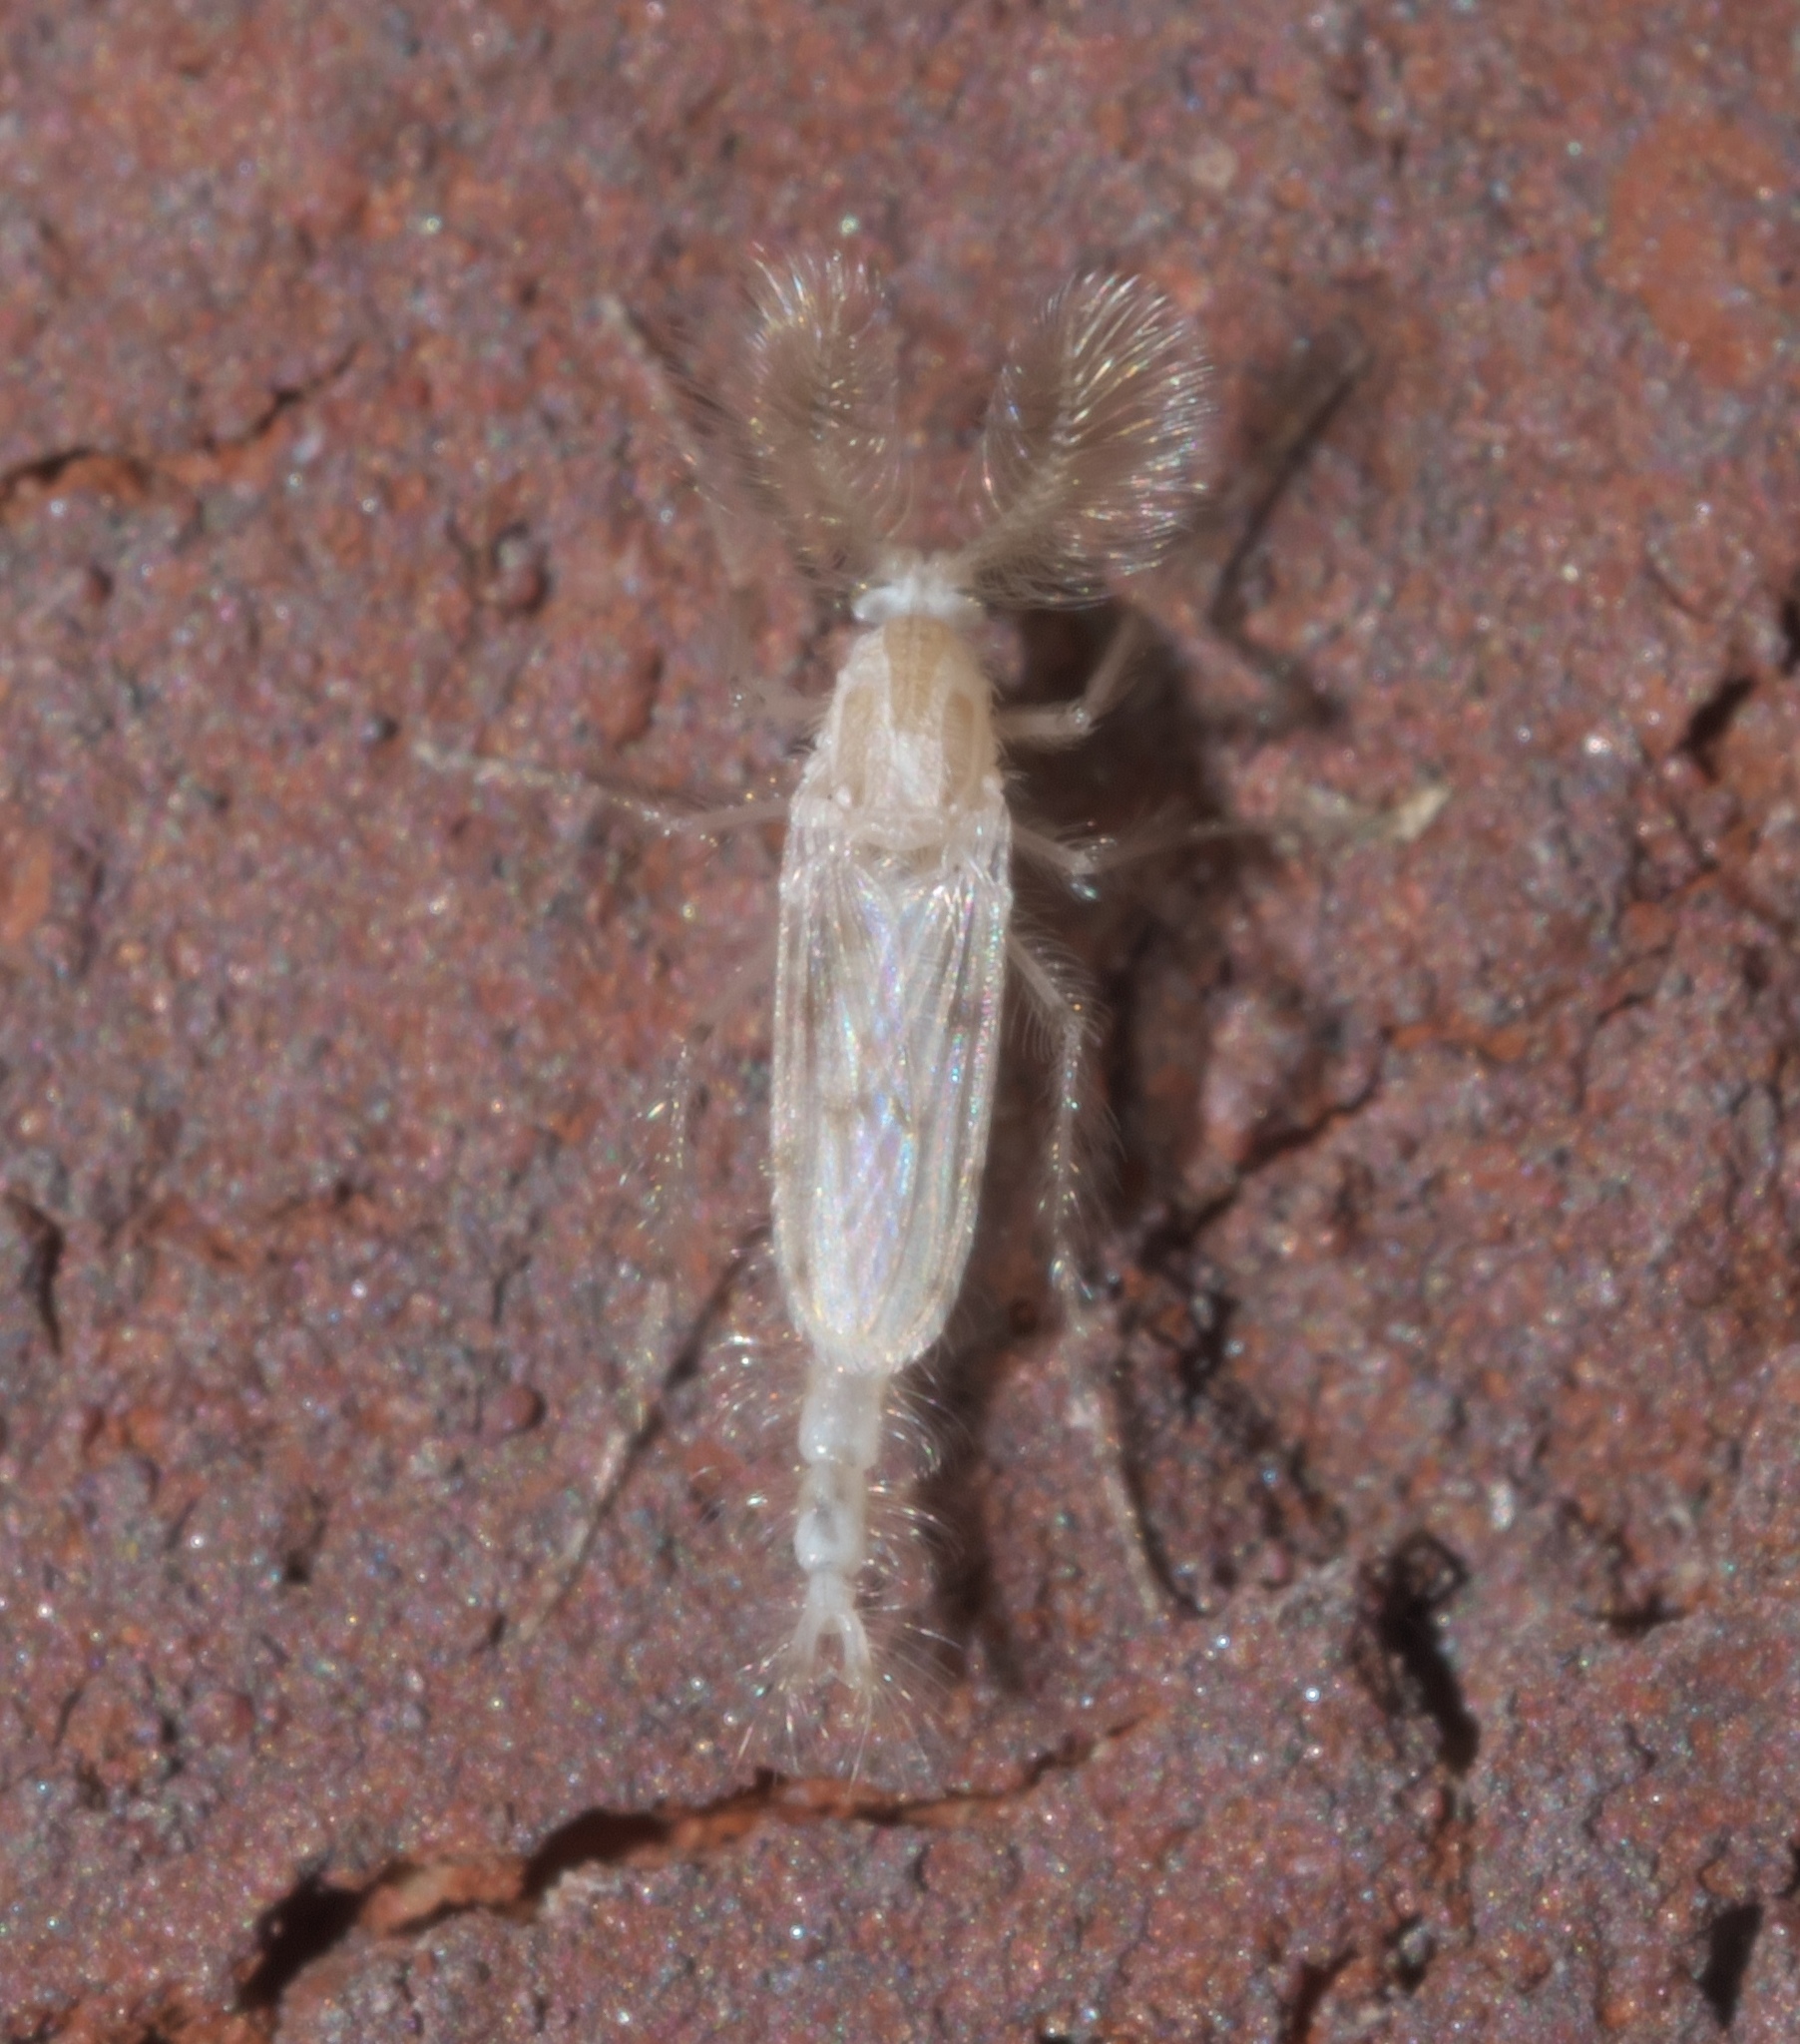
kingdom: Animalia
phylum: Arthropoda
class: Insecta
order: Diptera
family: Chaoboridae
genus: Chaoborus
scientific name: Chaoborus albatus
